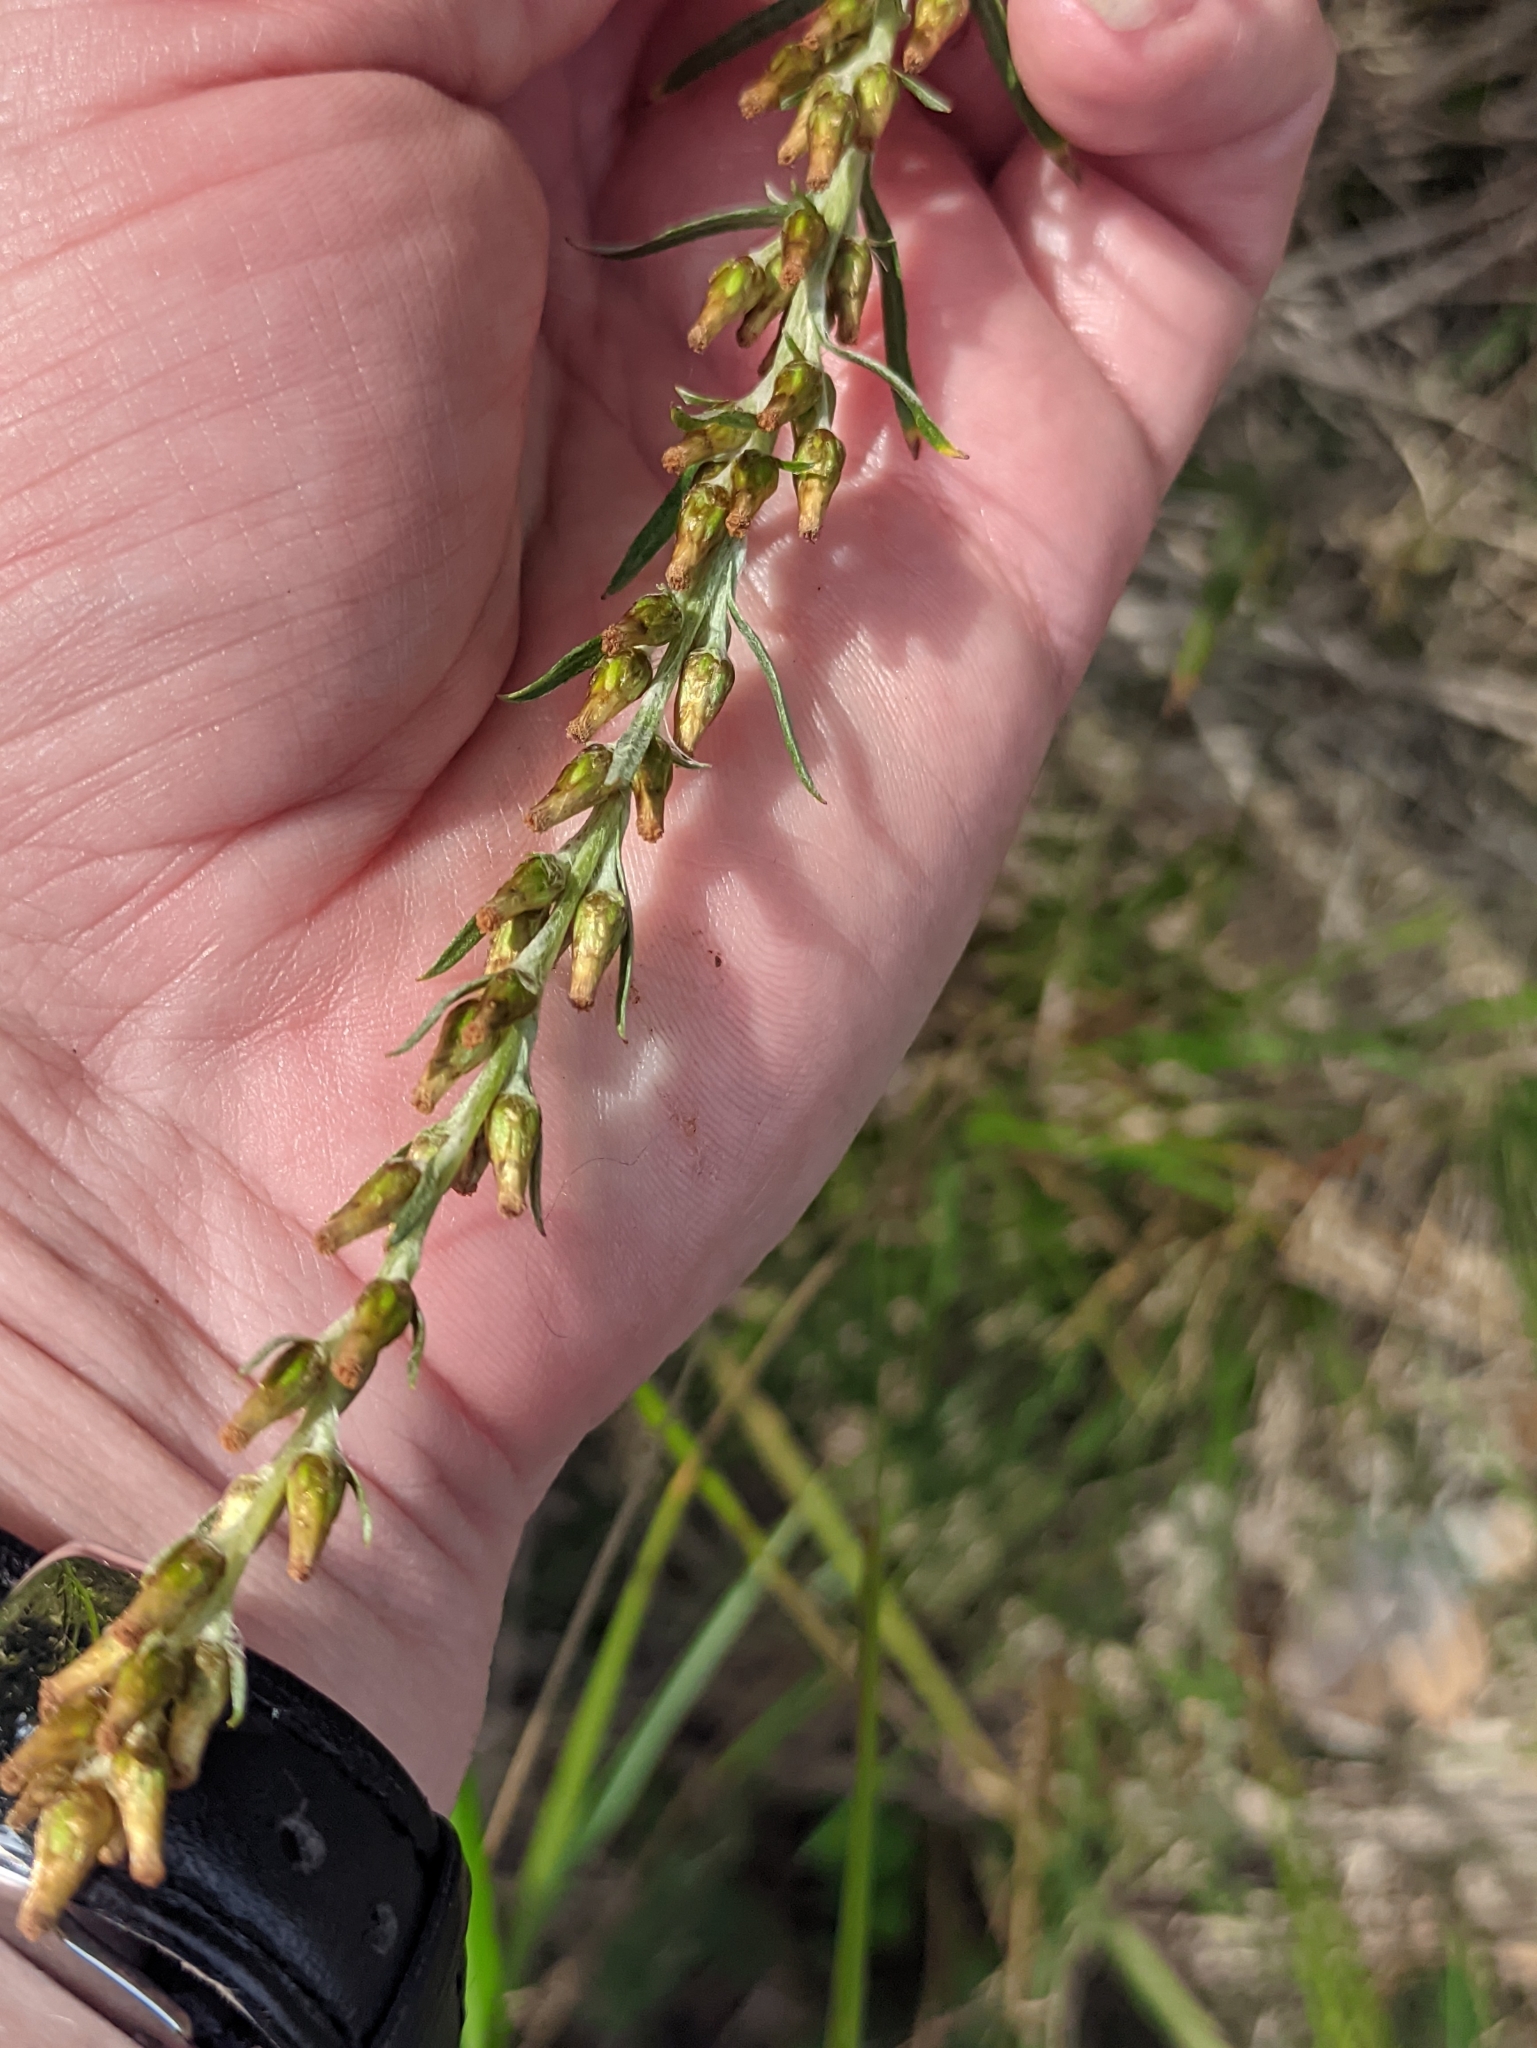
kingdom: Plantae
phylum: Tracheophyta
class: Magnoliopsida
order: Asterales
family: Asteraceae
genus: Omalotheca
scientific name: Omalotheca sylvatica
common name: Heath cudweed
